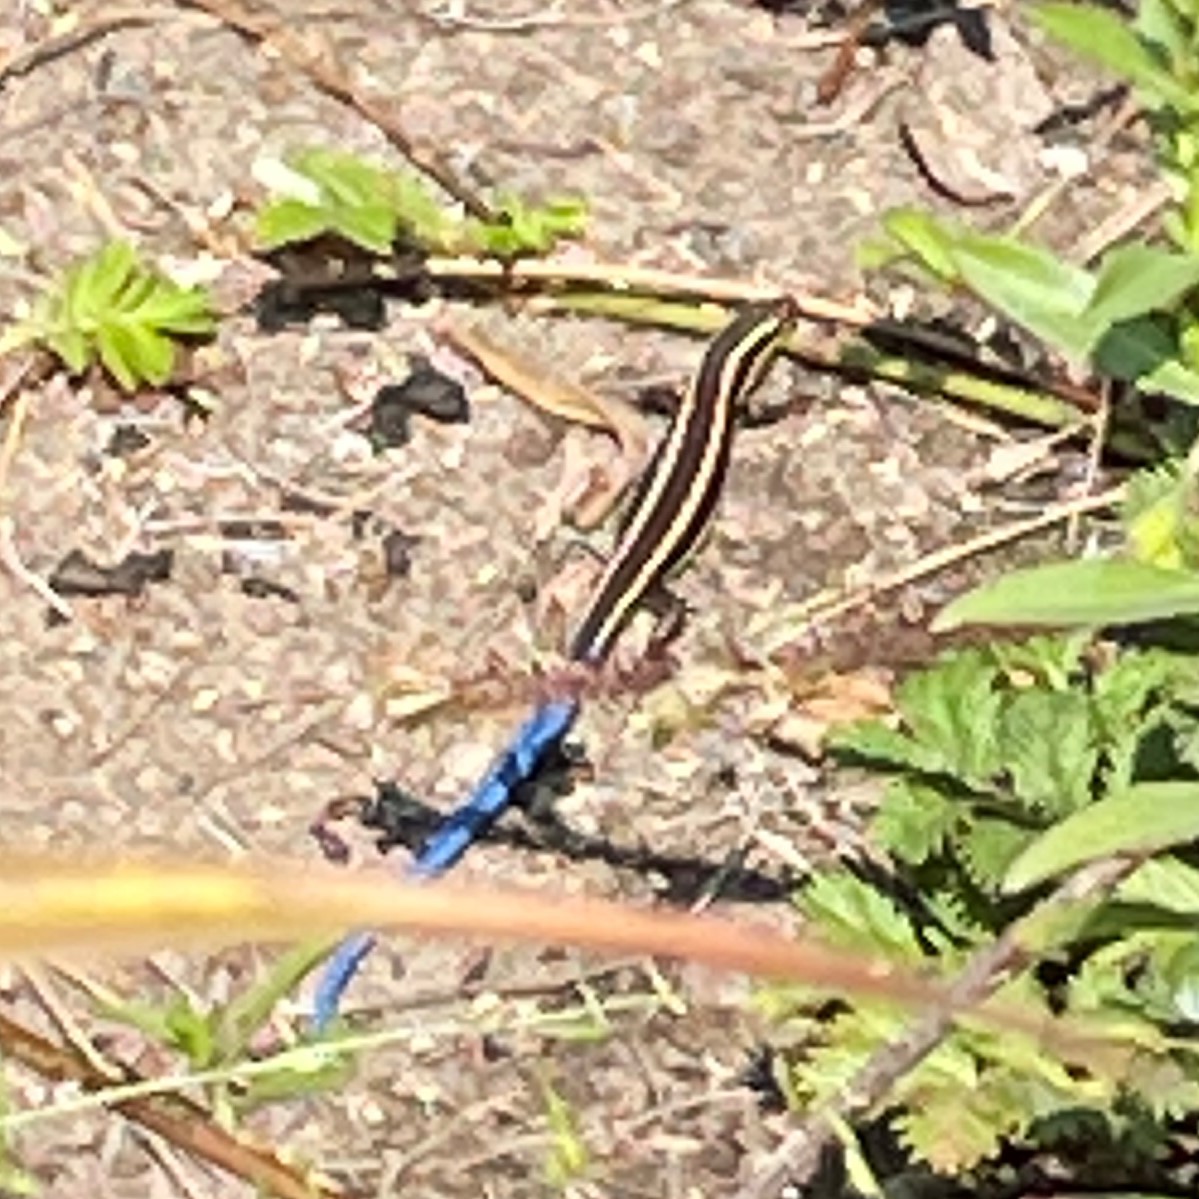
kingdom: Animalia
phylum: Chordata
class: Squamata
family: Scincidae
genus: Plestiodon
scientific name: Plestiodon skiltonianus
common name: Coronado island skink [interparietalis]
